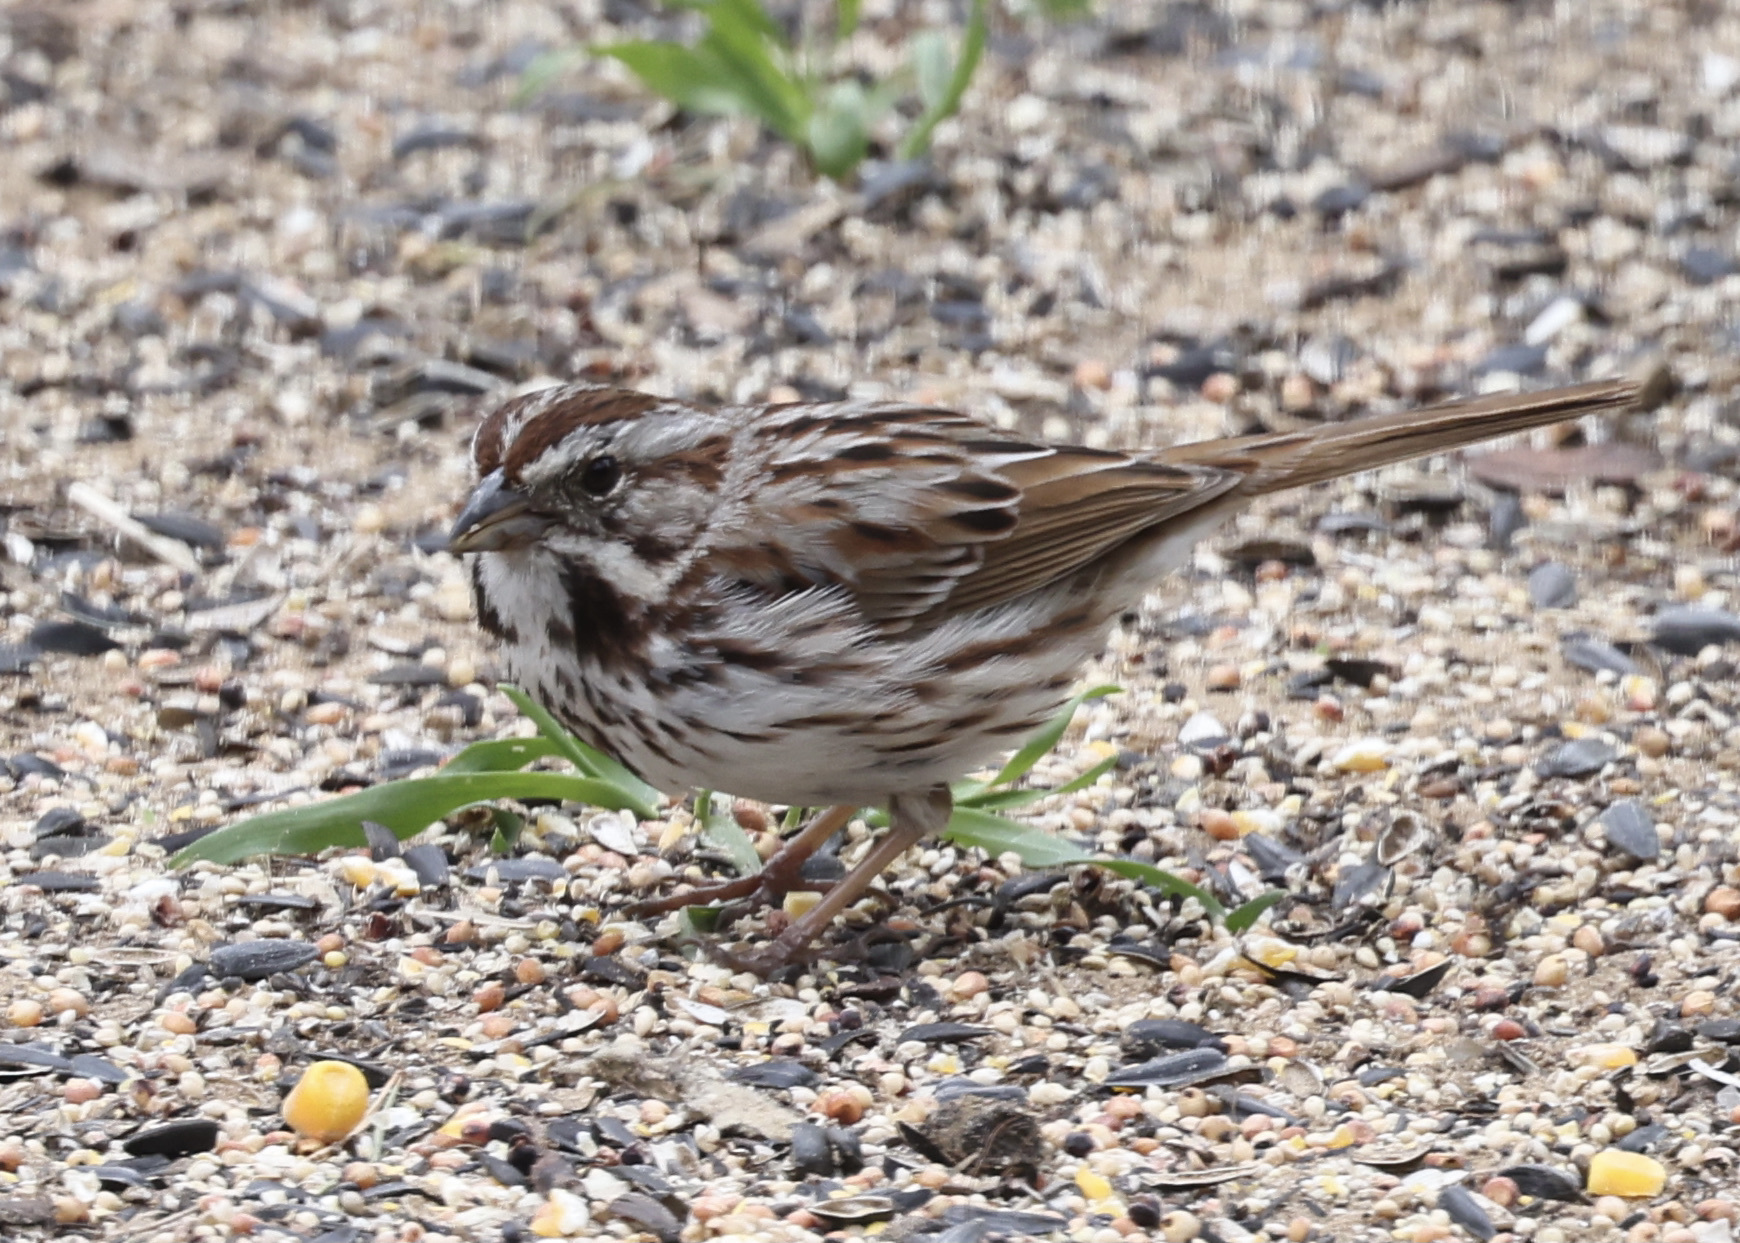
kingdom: Animalia
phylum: Chordata
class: Aves
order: Passeriformes
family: Passerellidae
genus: Melospiza
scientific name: Melospiza melodia
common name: Song sparrow
